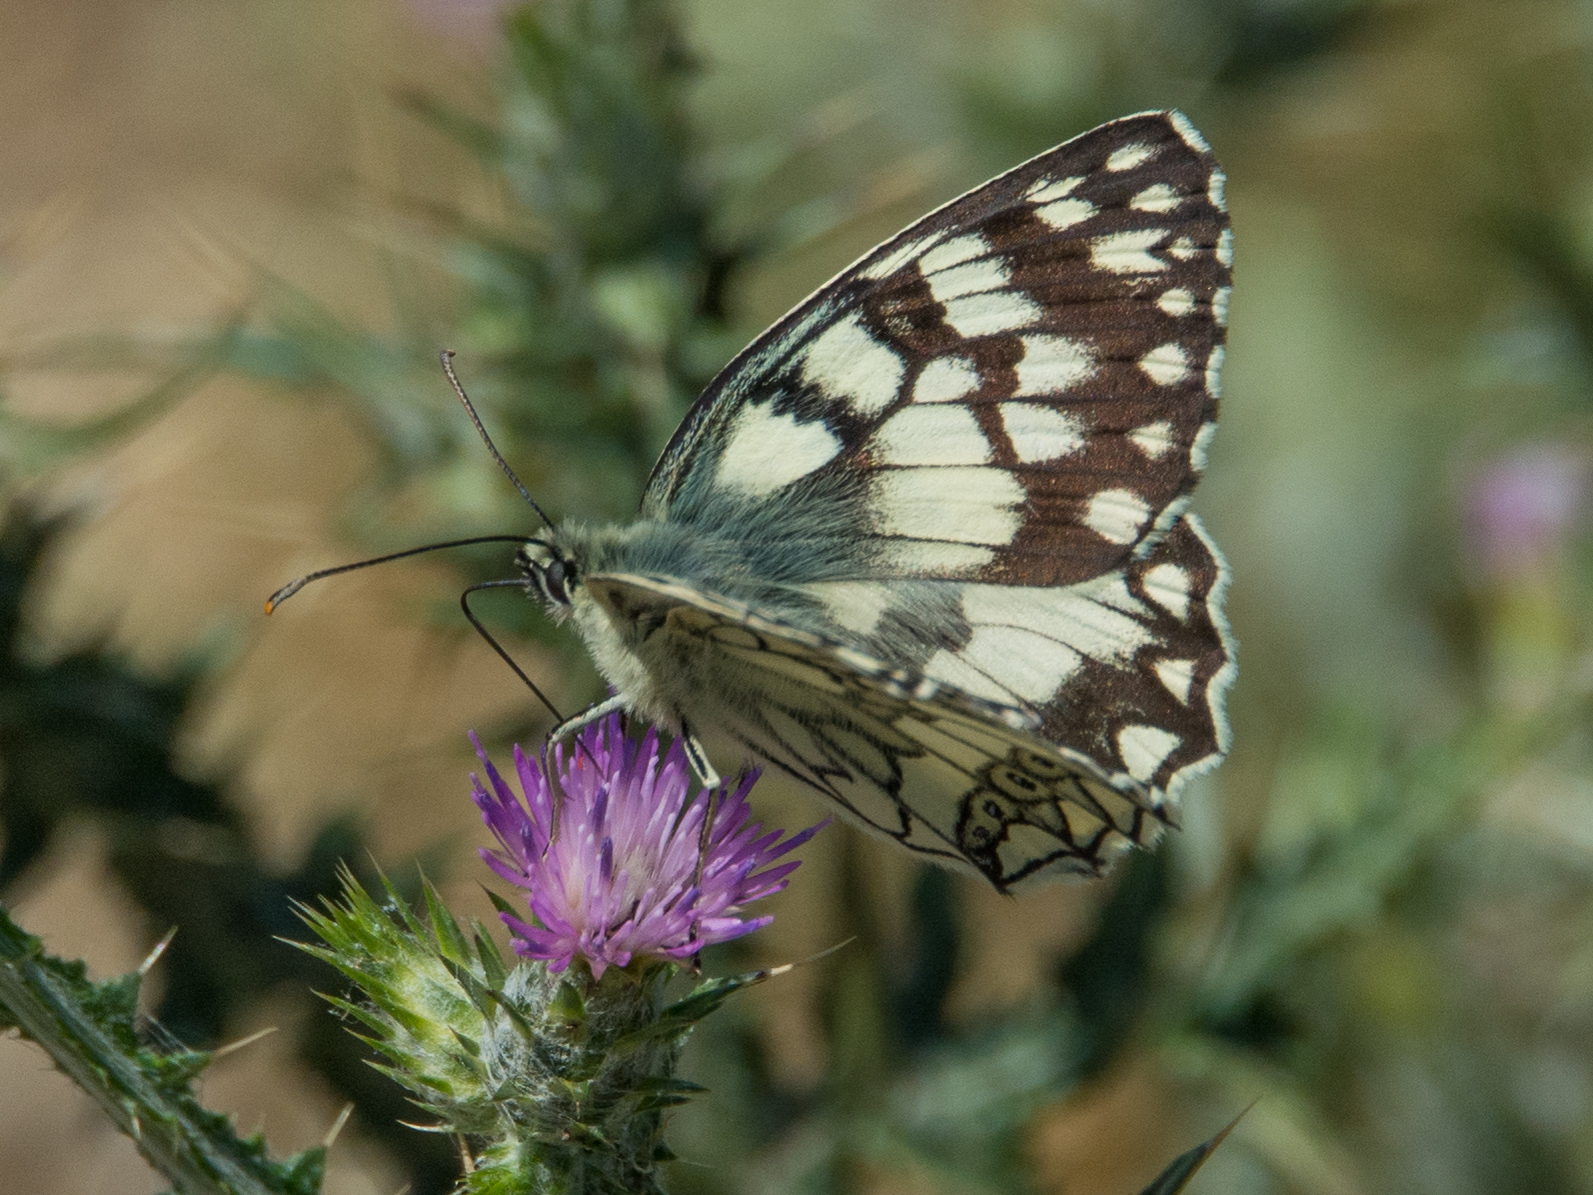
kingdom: Animalia
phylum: Arthropoda
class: Insecta
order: Lepidoptera
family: Nymphalidae
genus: Melanargia
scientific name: Melanargia japygia
